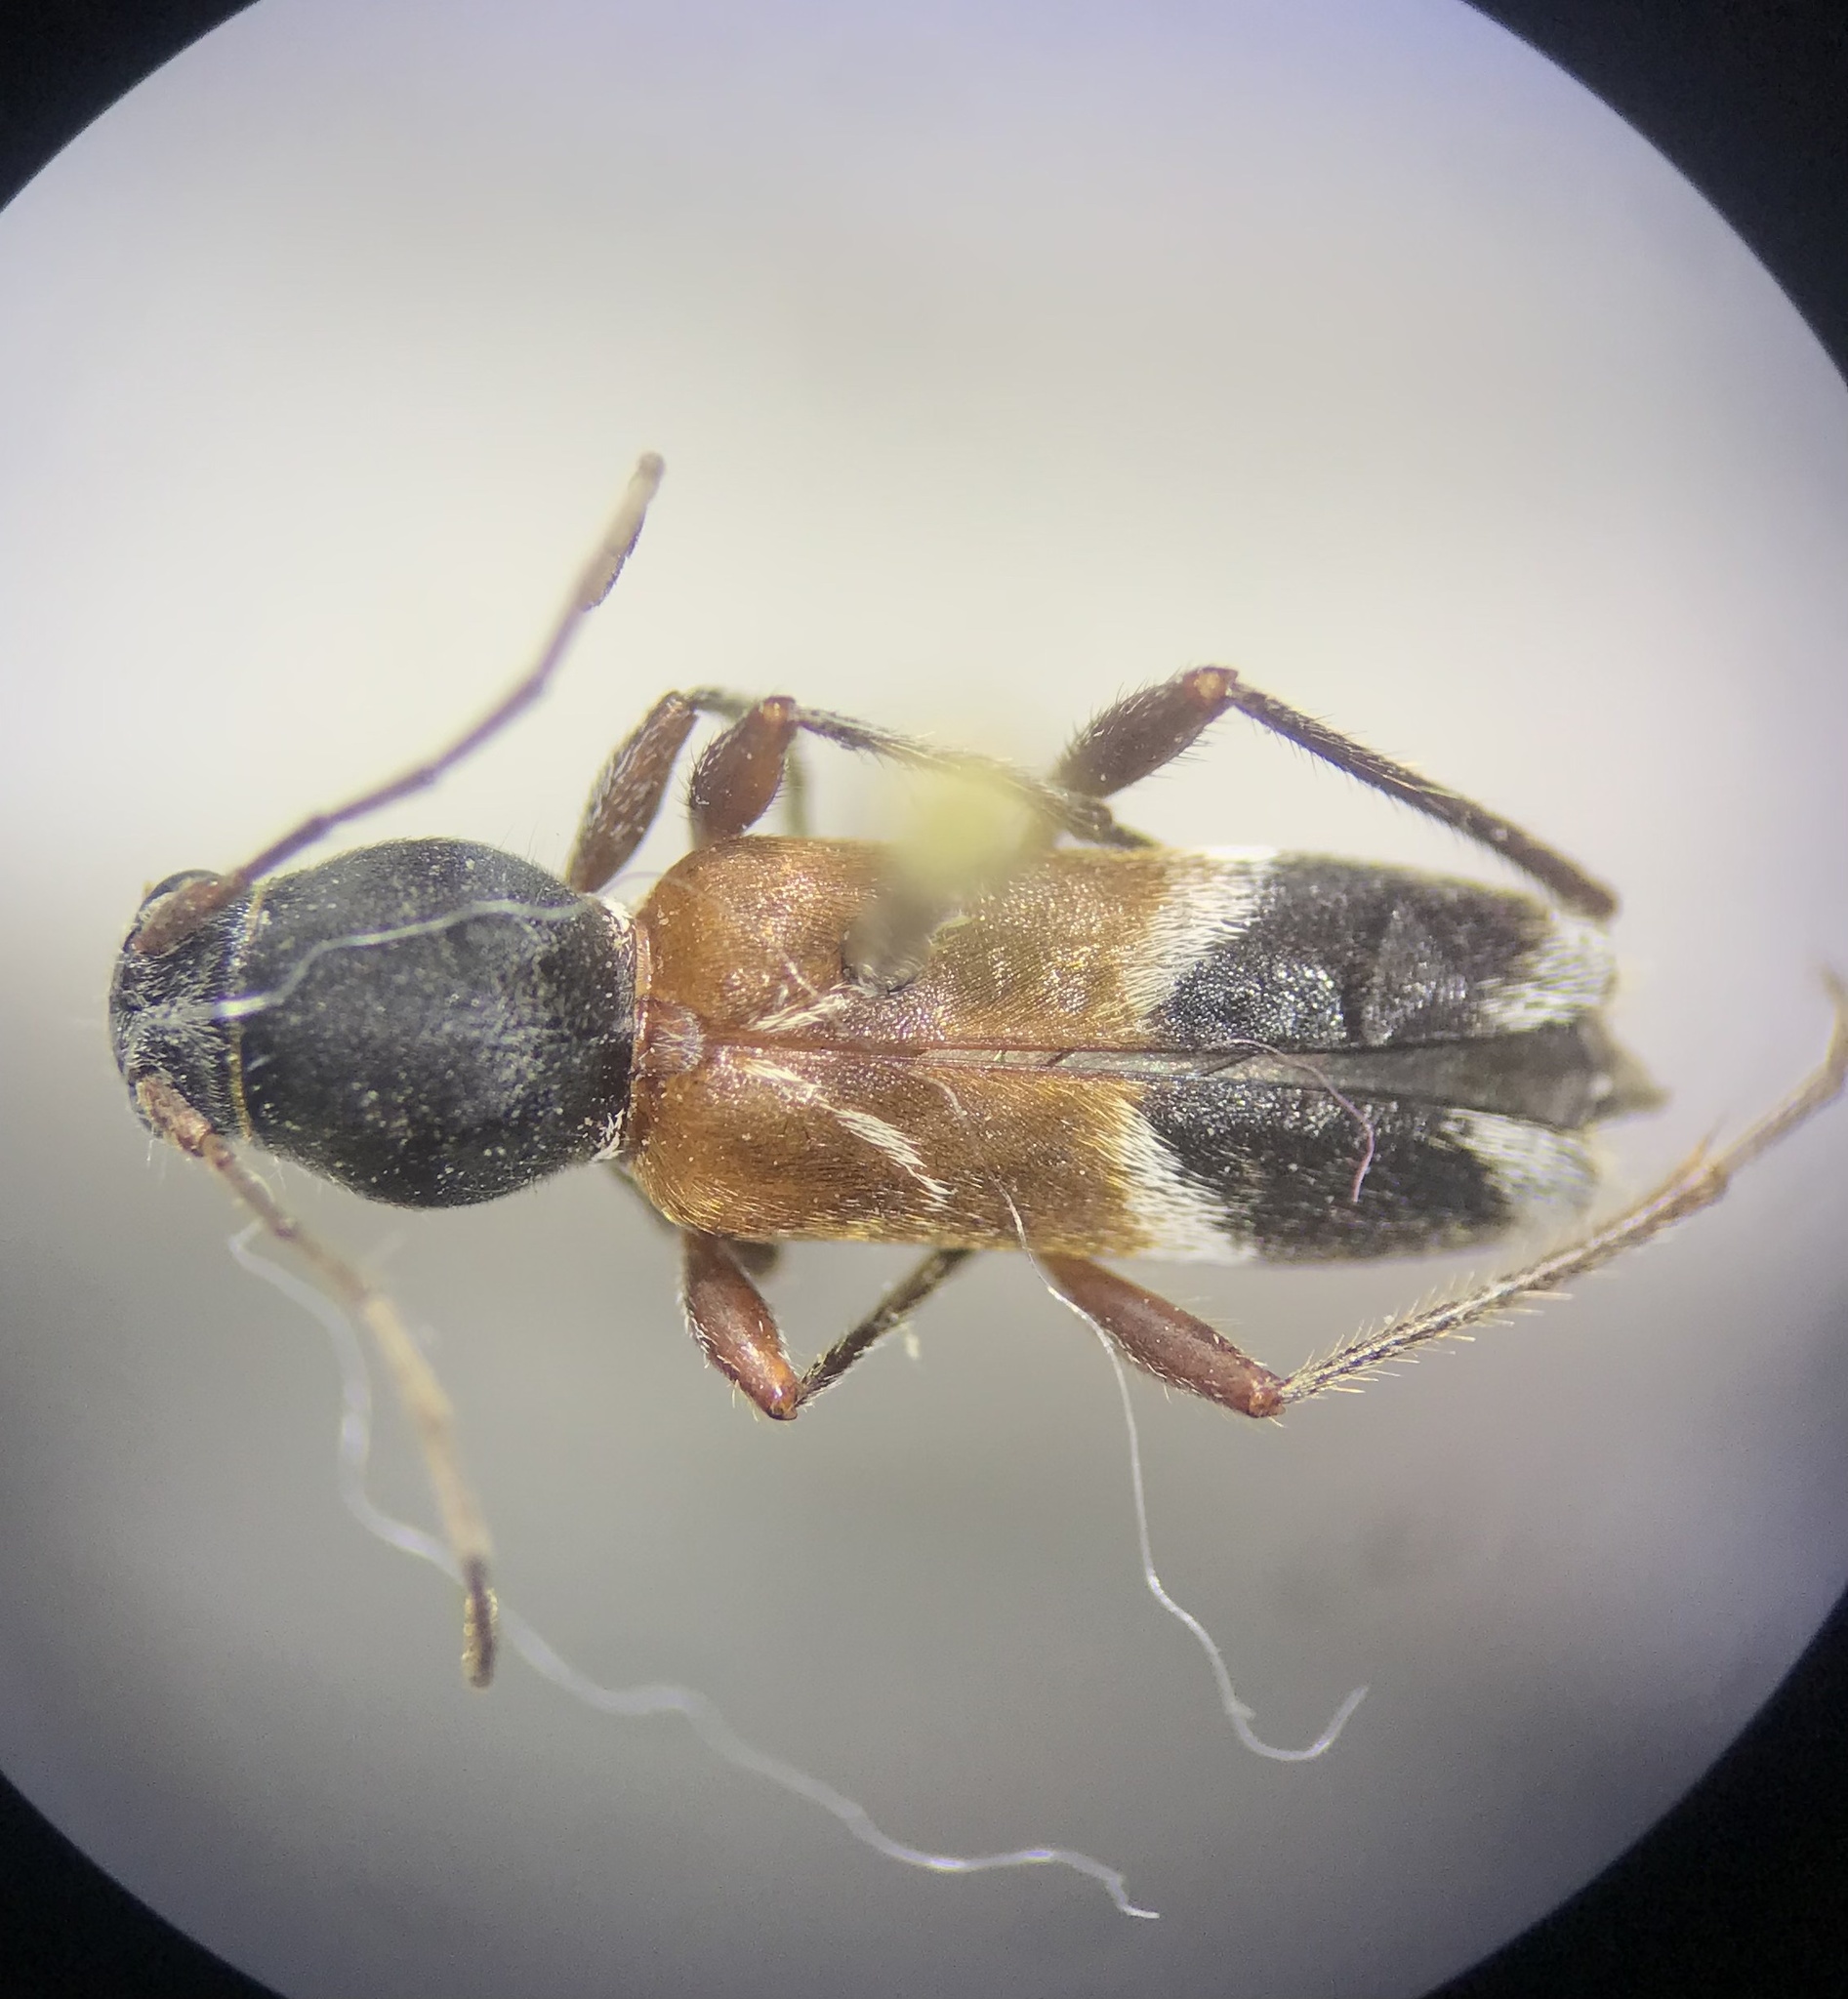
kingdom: Animalia
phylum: Arthropoda
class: Insecta
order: Coleoptera
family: Cerambycidae
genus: Clytoleptus
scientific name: Clytoleptus albofasciatus
